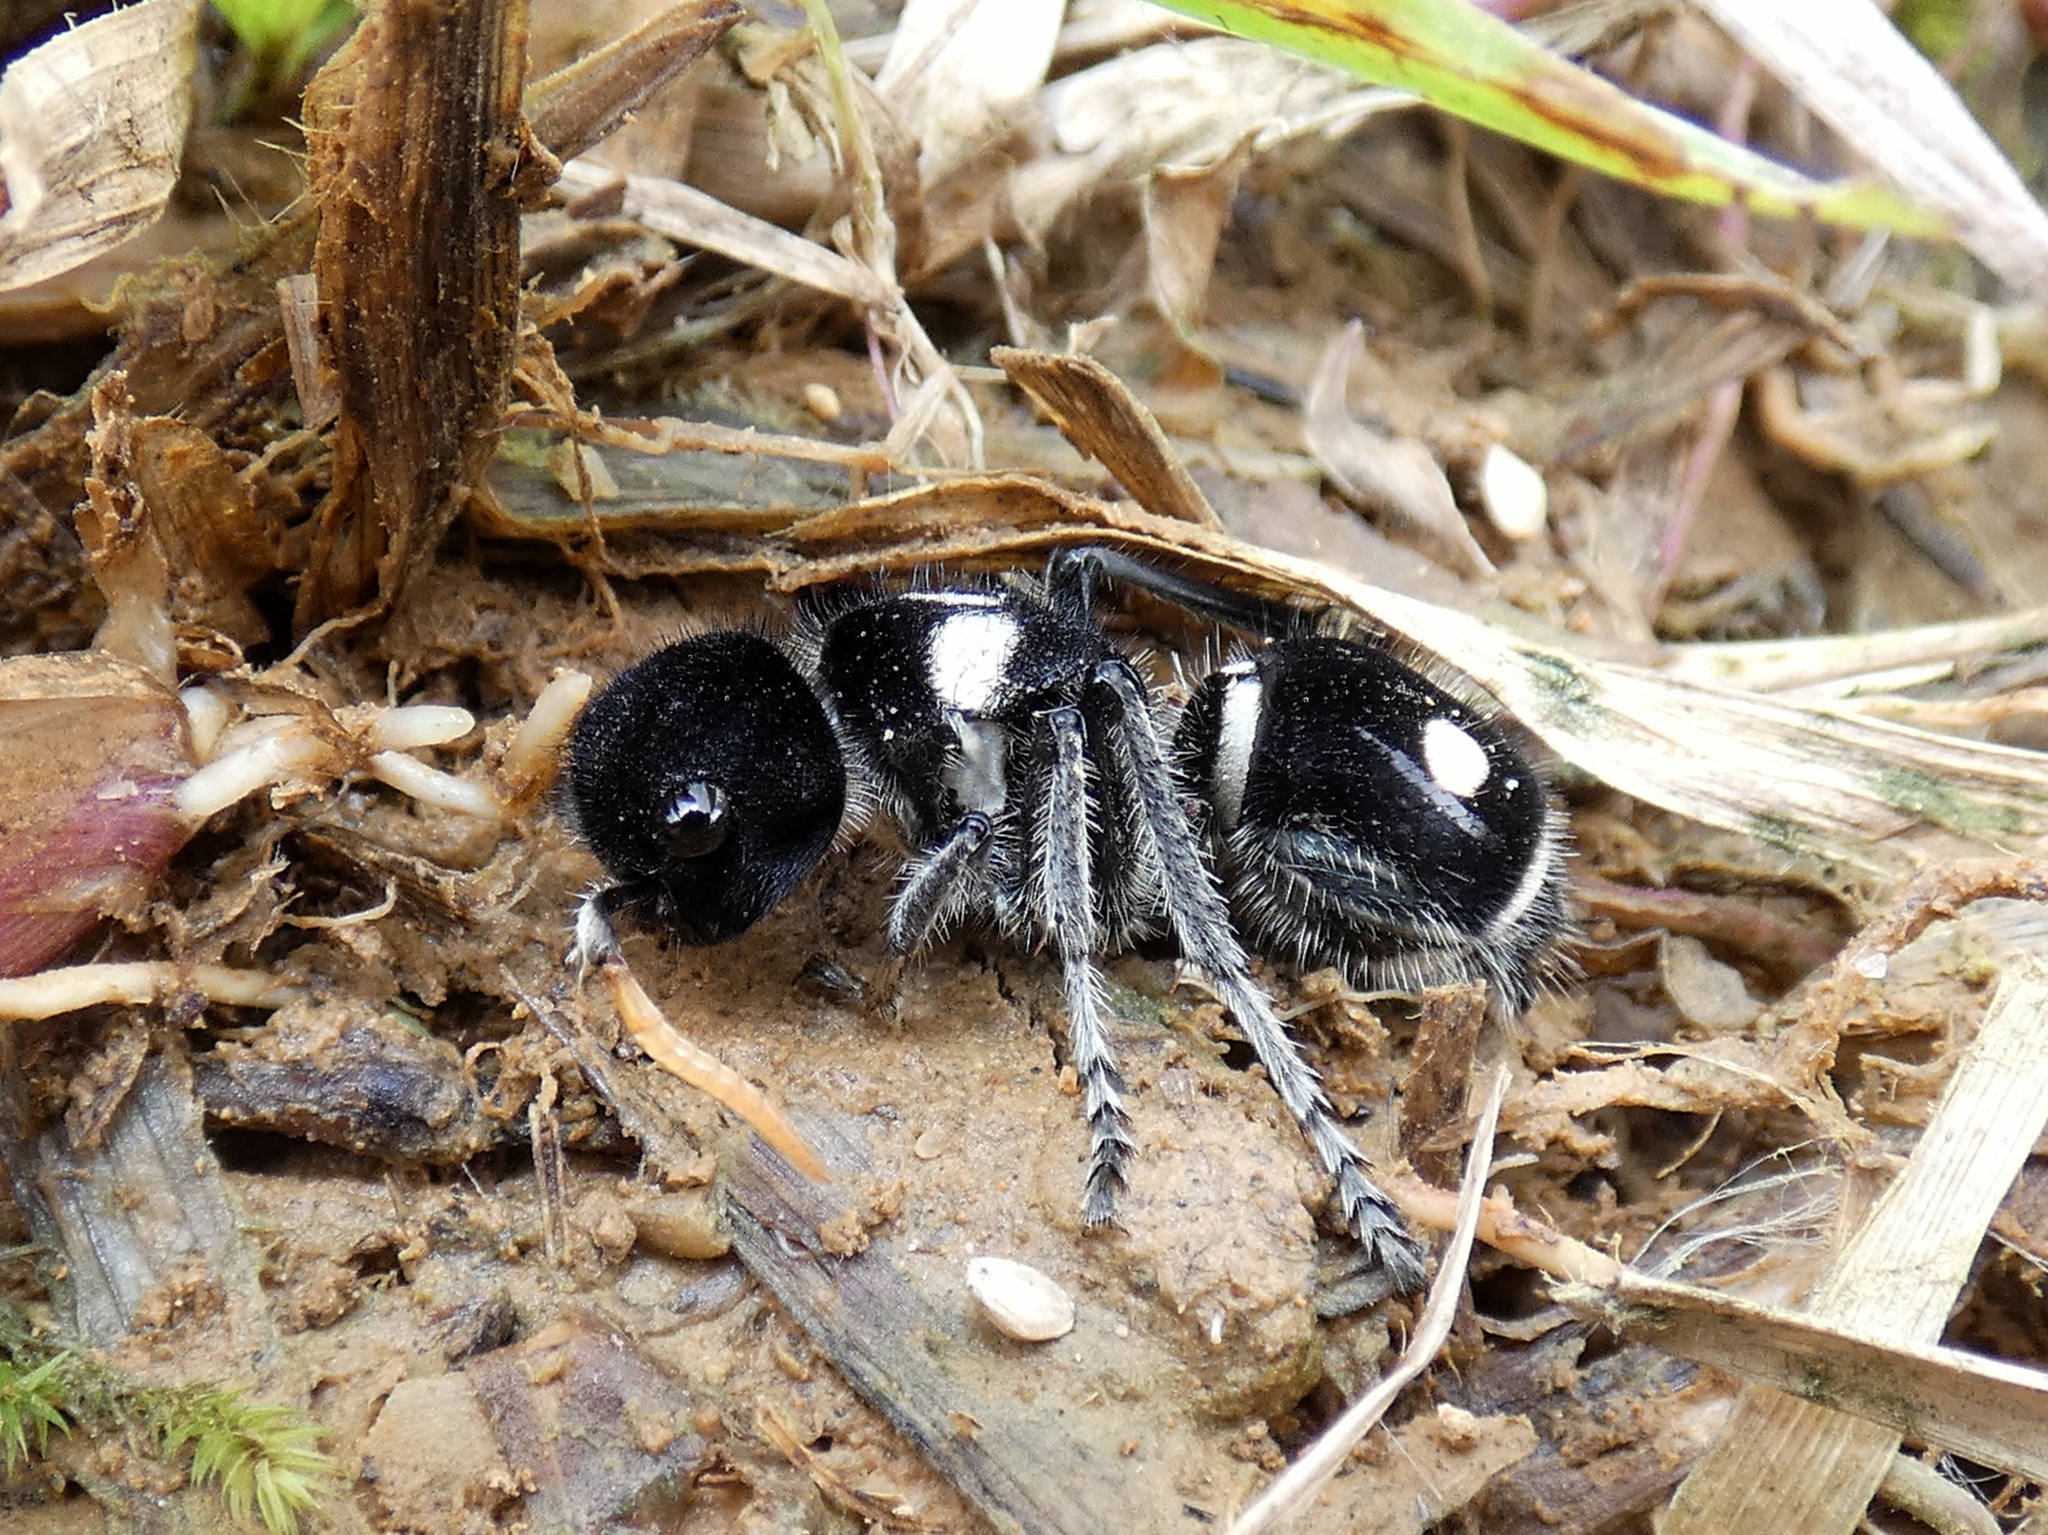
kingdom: Animalia
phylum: Arthropoda
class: Insecta
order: Hymenoptera
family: Mutillidae
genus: Hoplomutilla
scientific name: Hoplomutilla
